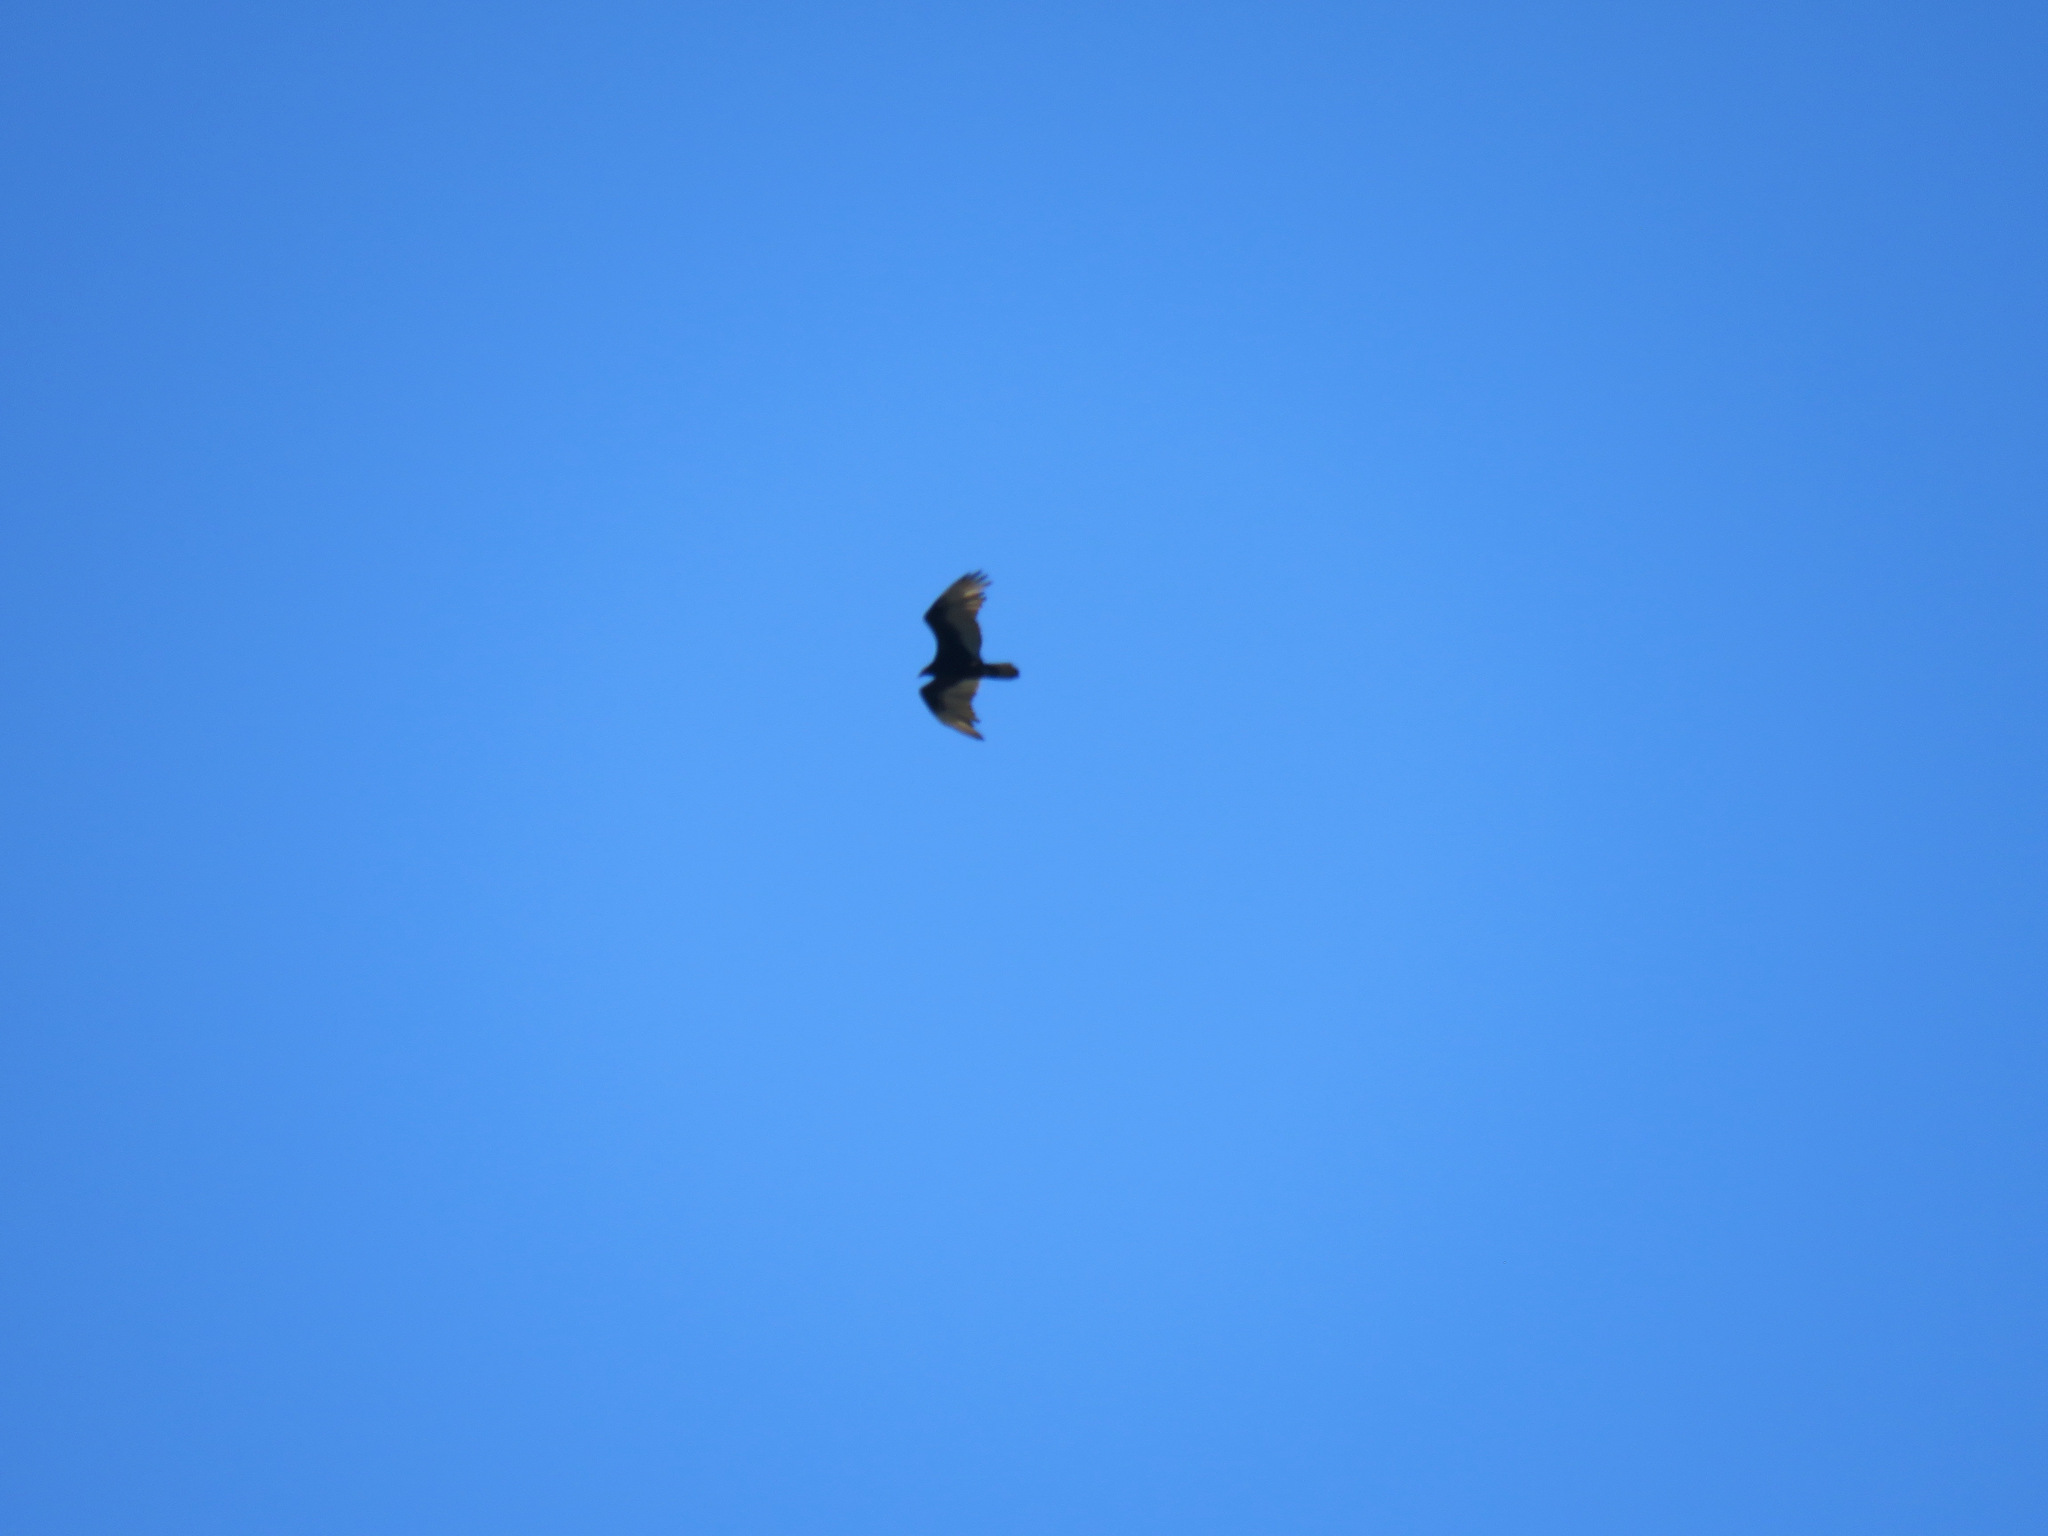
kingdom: Animalia
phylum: Chordata
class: Aves
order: Accipitriformes
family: Cathartidae
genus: Cathartes
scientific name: Cathartes aura
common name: Turkey vulture
